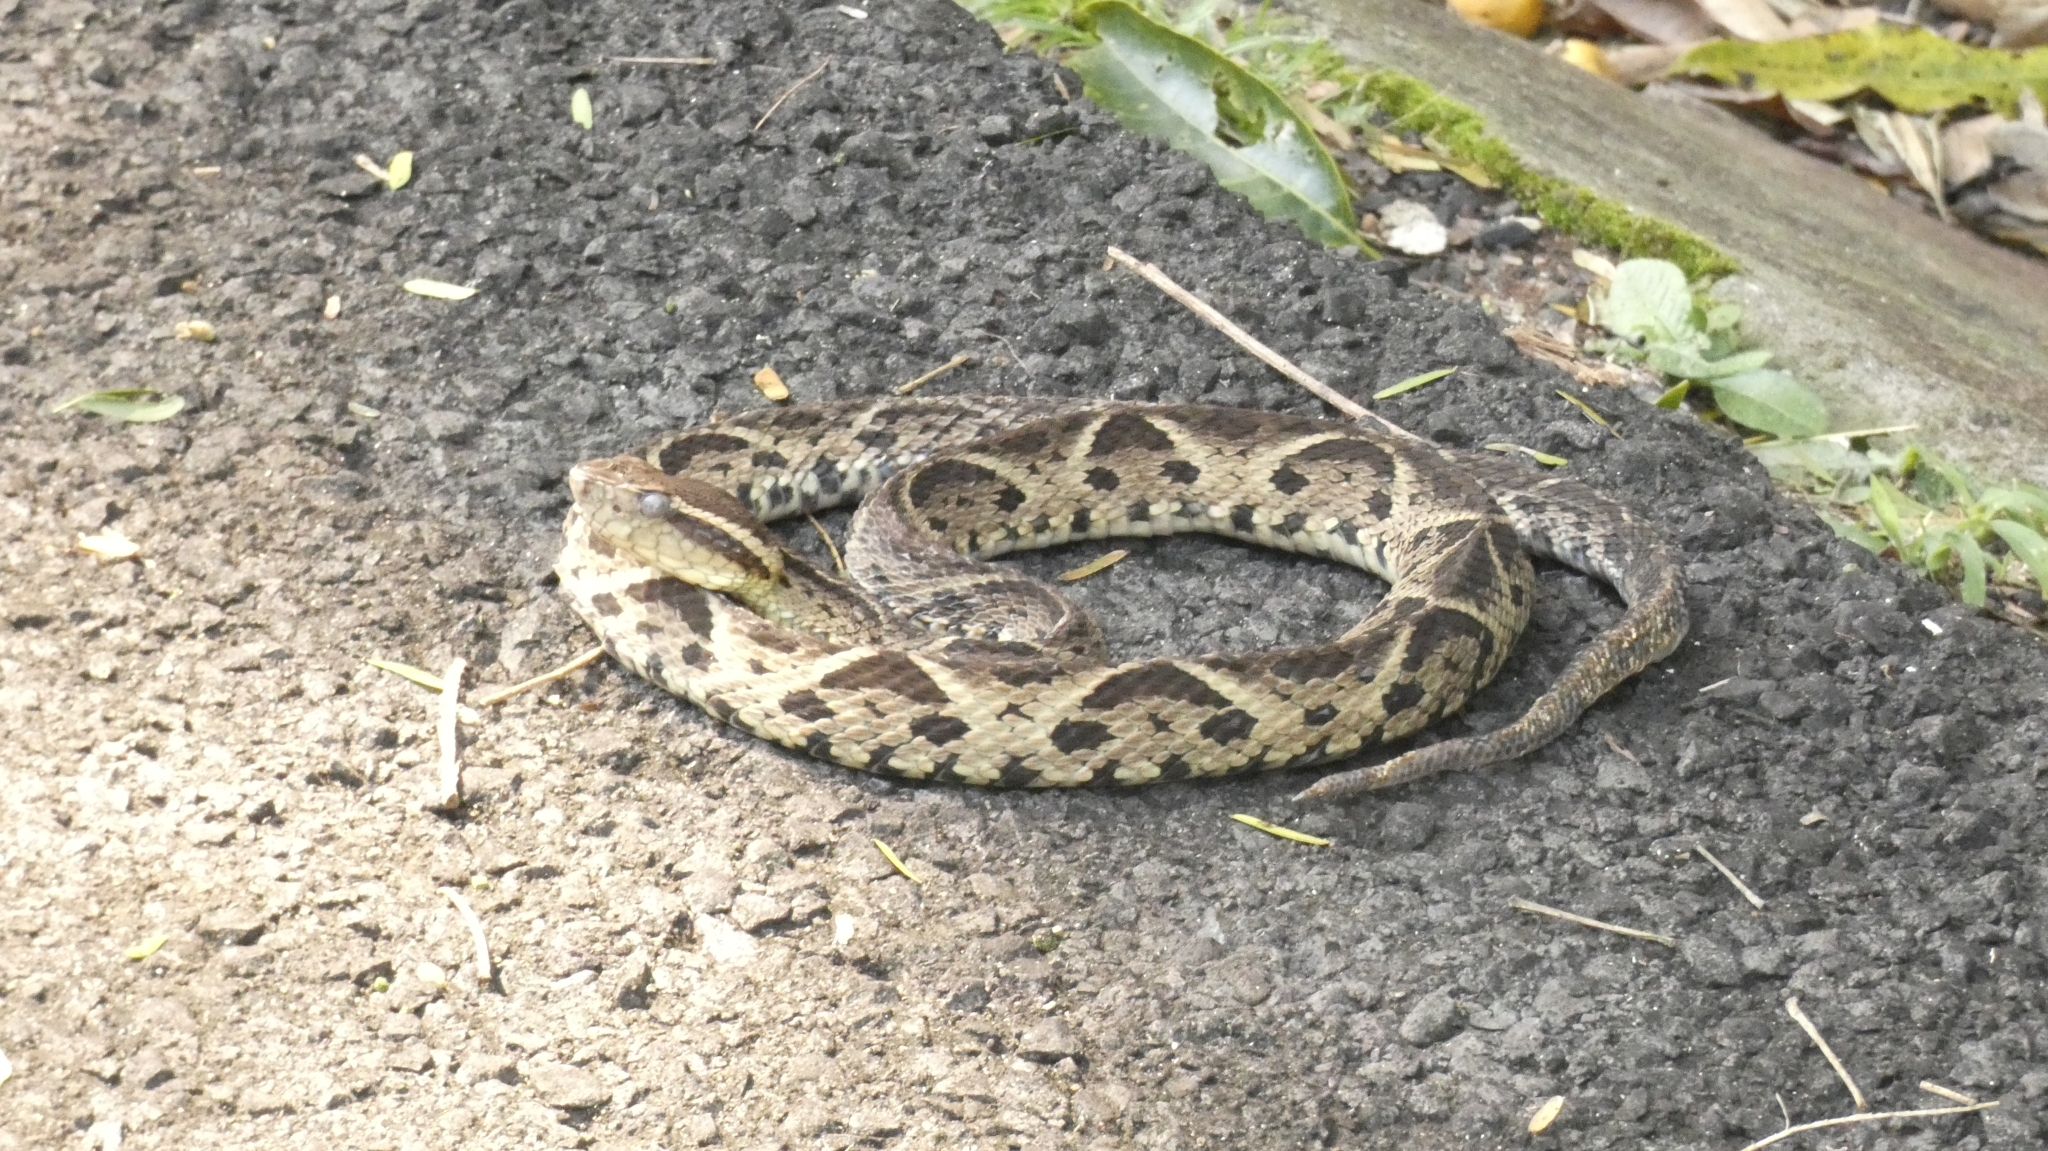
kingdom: Animalia
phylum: Chordata
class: Squamata
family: Viperidae
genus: Bothrops
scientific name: Bothrops jararacussu
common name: Jararacussu
